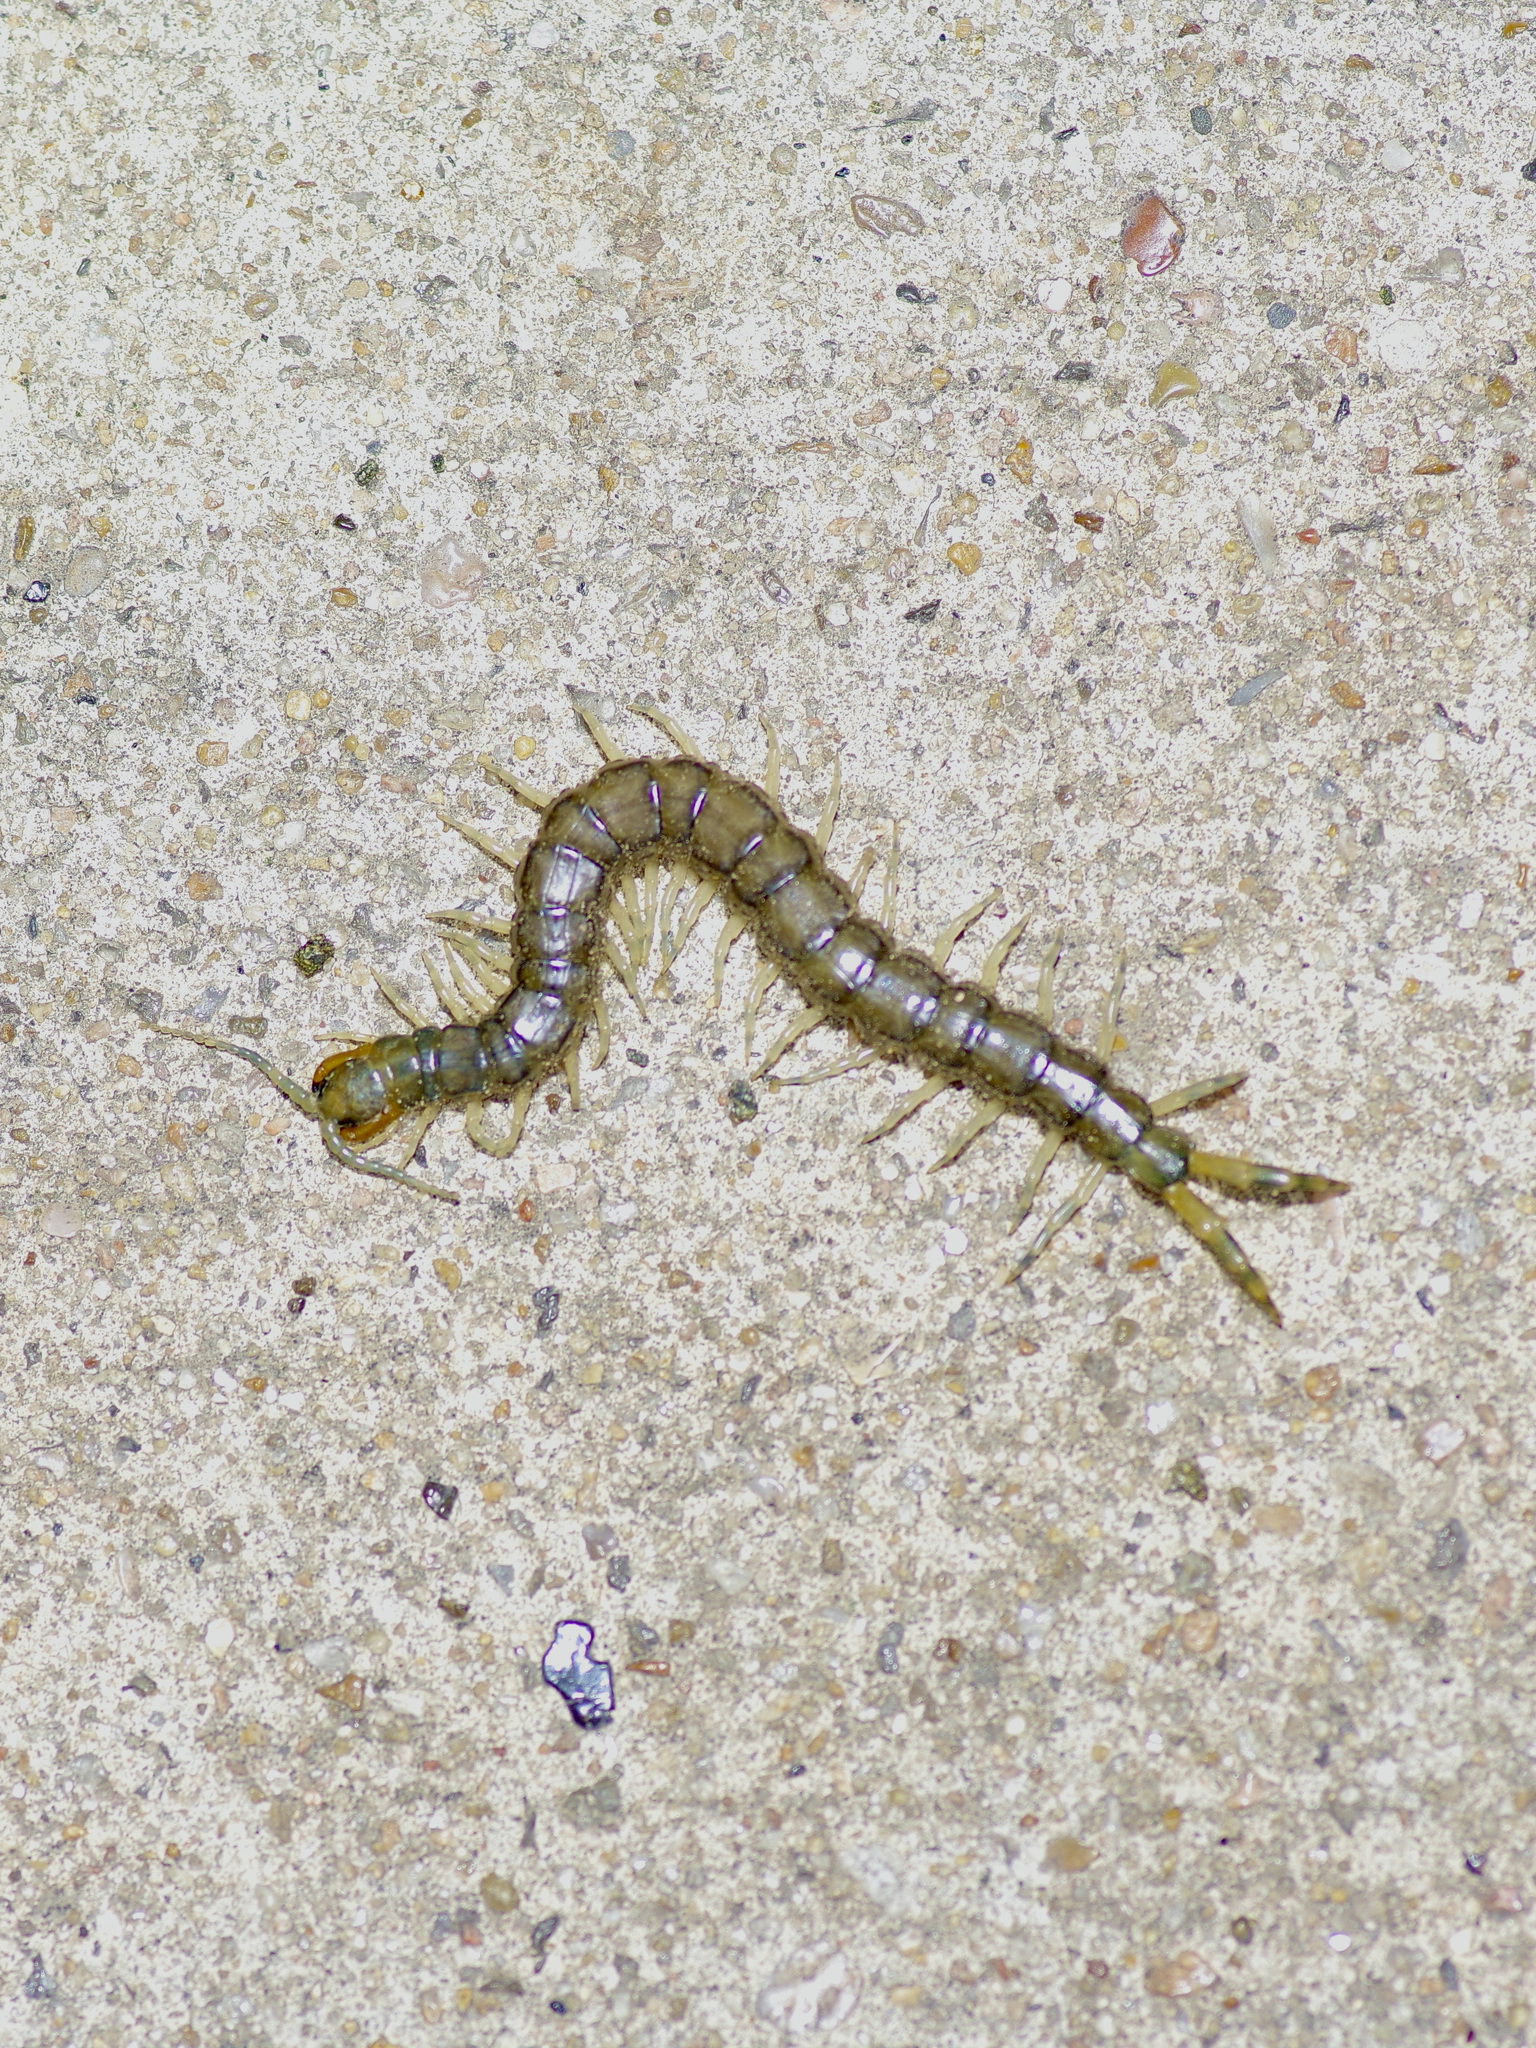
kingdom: Animalia
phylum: Arthropoda
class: Chilopoda
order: Scolopendromorpha
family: Scolopendridae
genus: Hemiscolopendra
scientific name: Hemiscolopendra marginata
